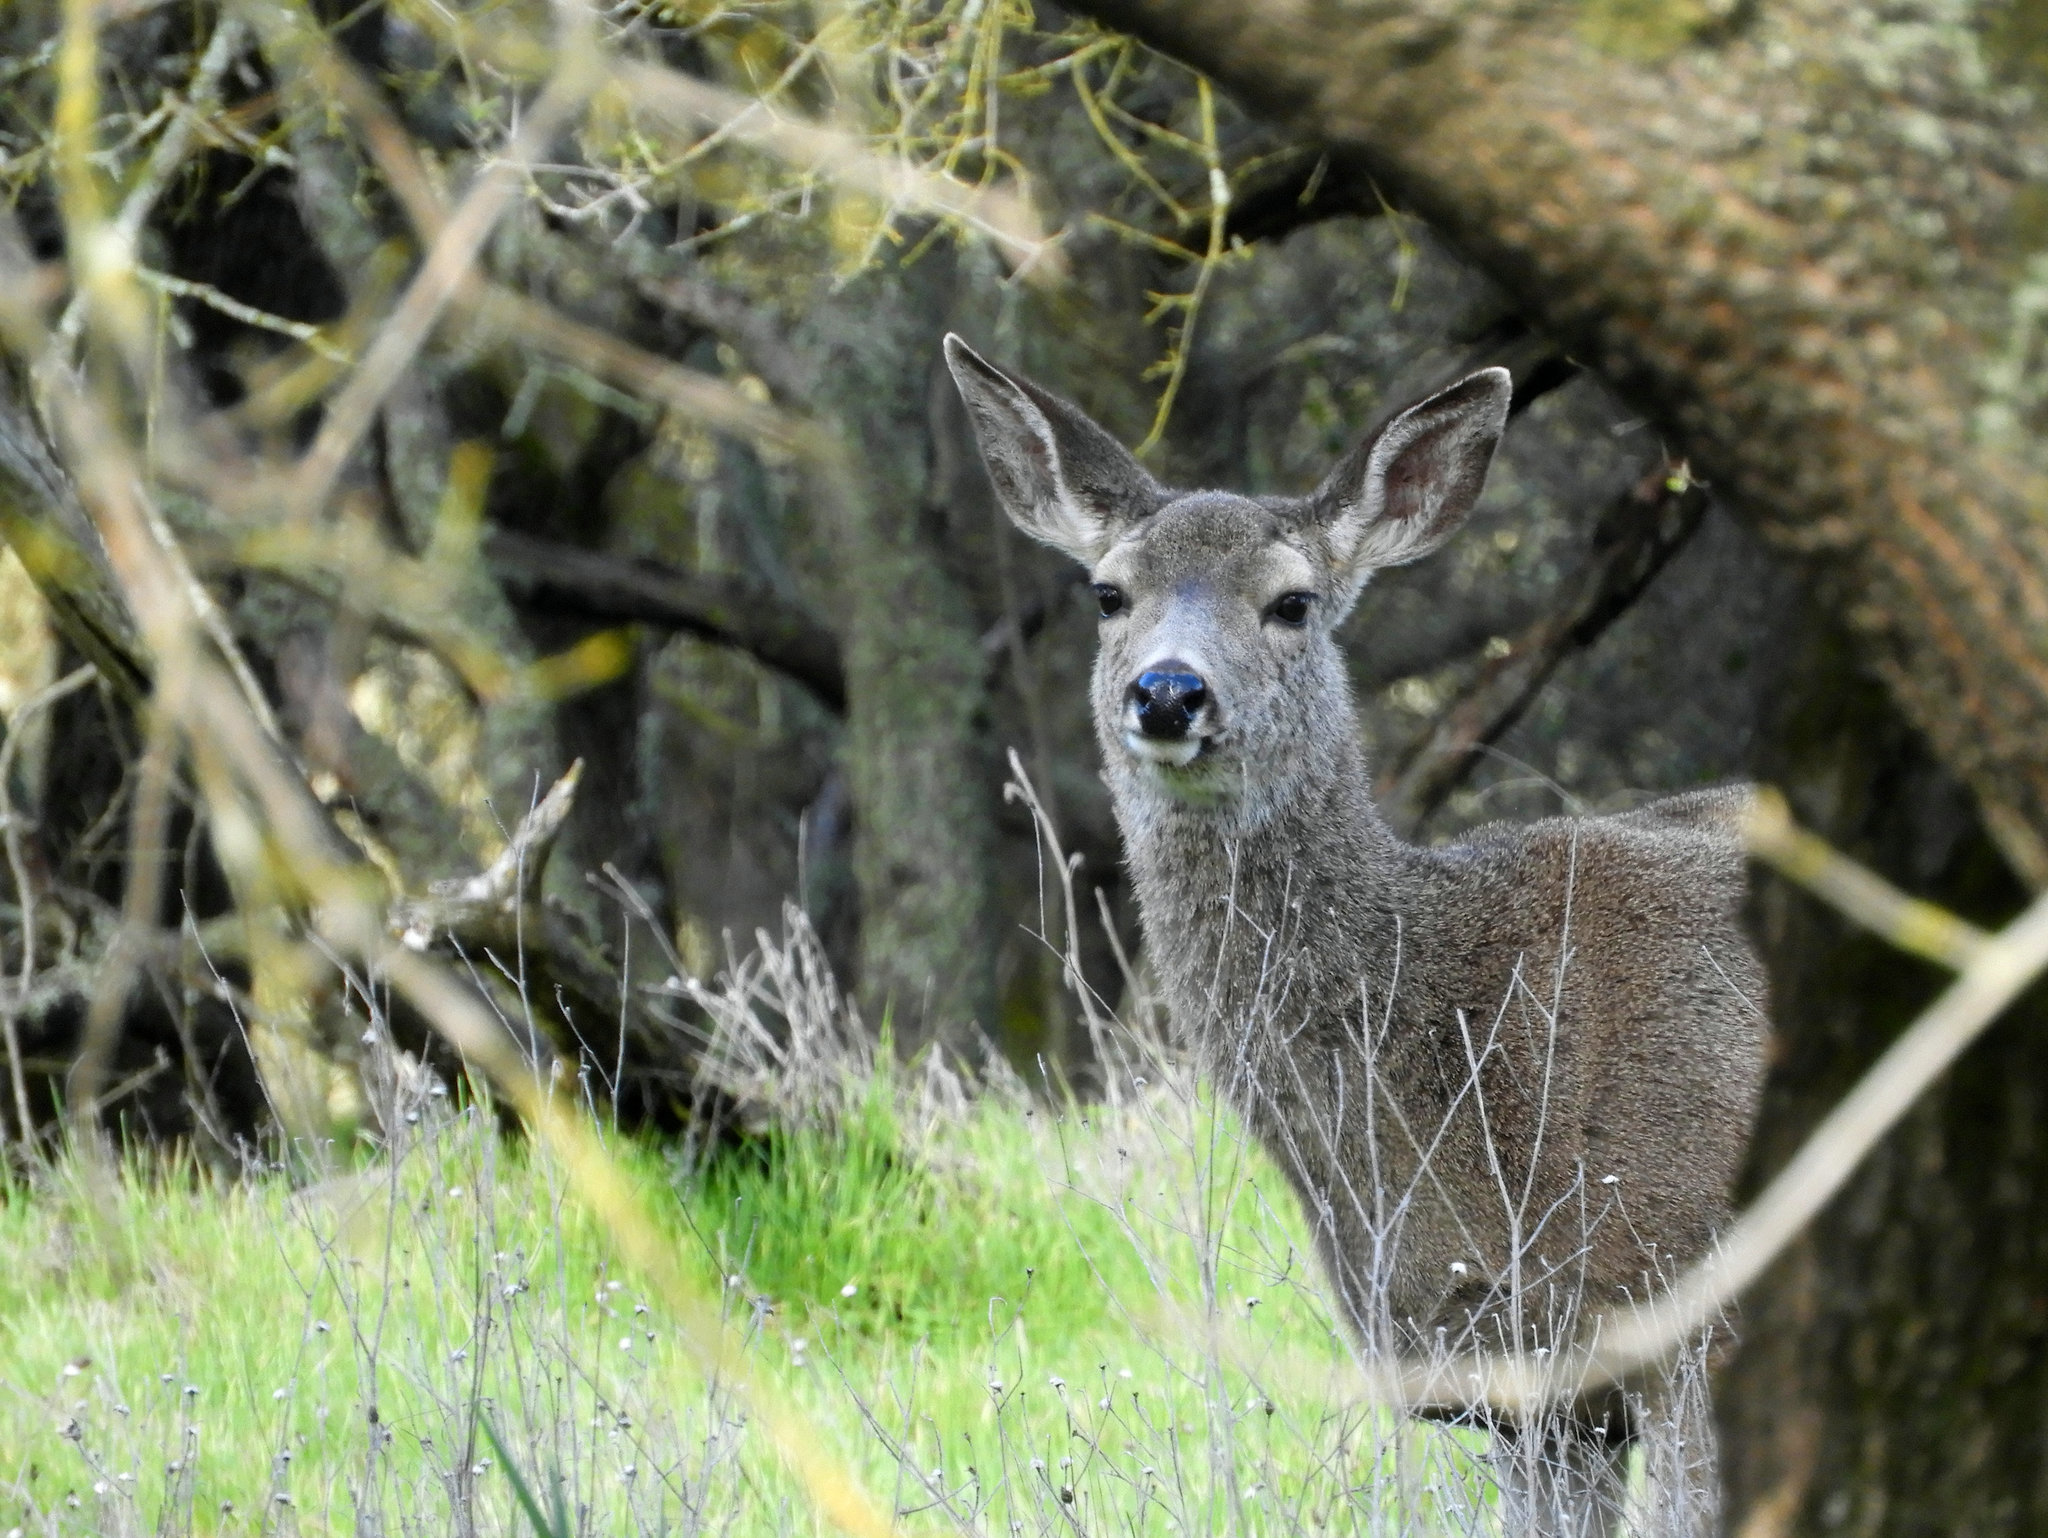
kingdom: Animalia
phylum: Chordata
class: Mammalia
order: Artiodactyla
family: Cervidae
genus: Odocoileus
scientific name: Odocoileus hemionus
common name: Mule deer
